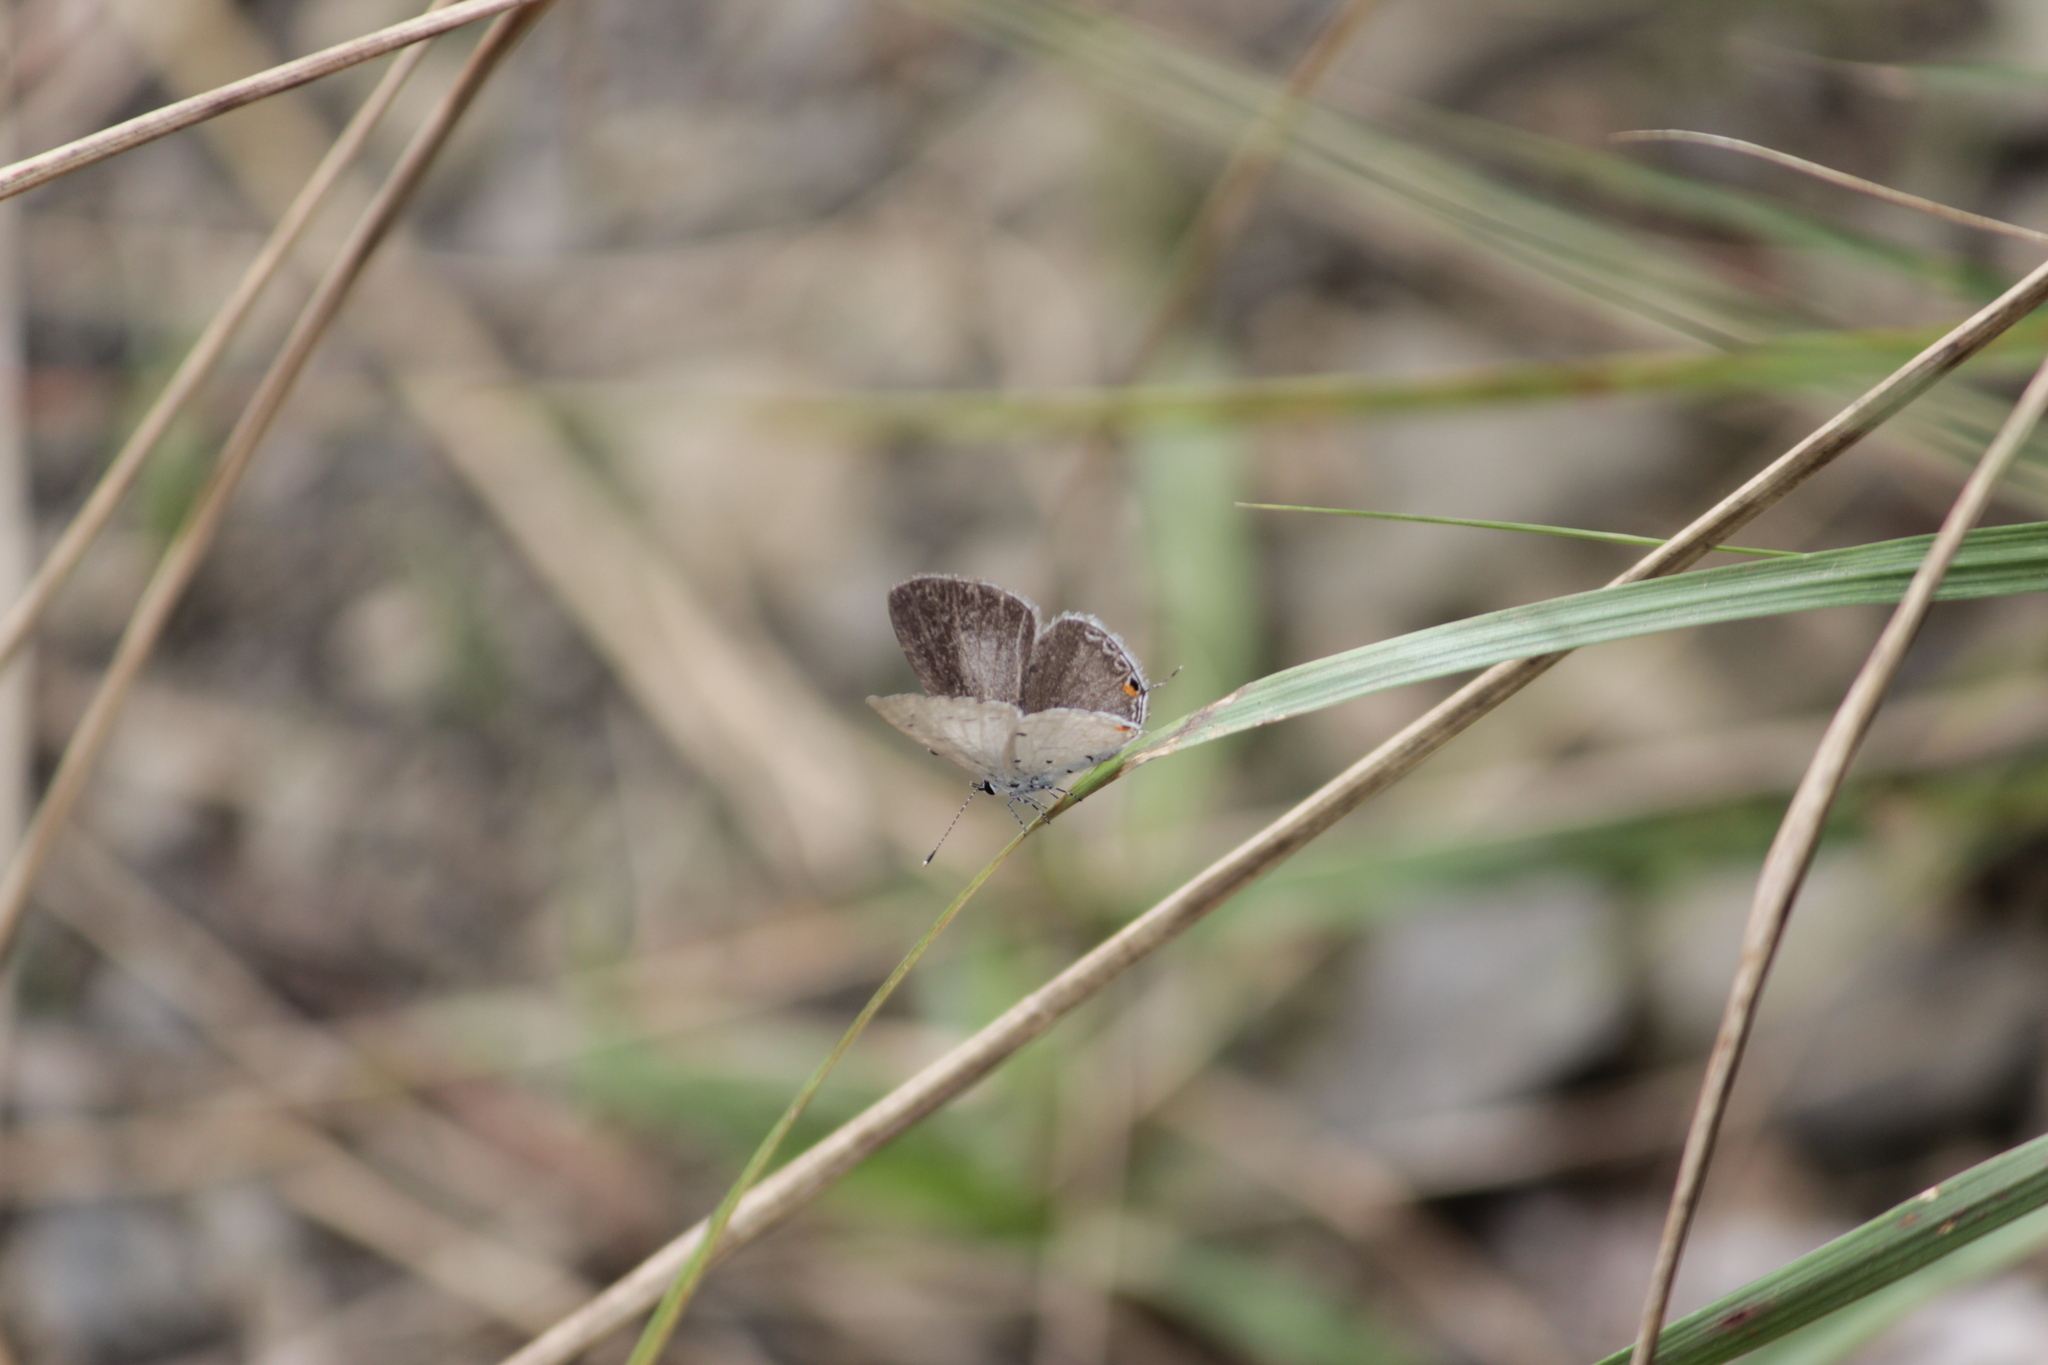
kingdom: Animalia
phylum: Arthropoda
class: Insecta
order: Lepidoptera
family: Lycaenidae
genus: Eicochrysops
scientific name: Eicochrysops hippocrates
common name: White-tipped blue
